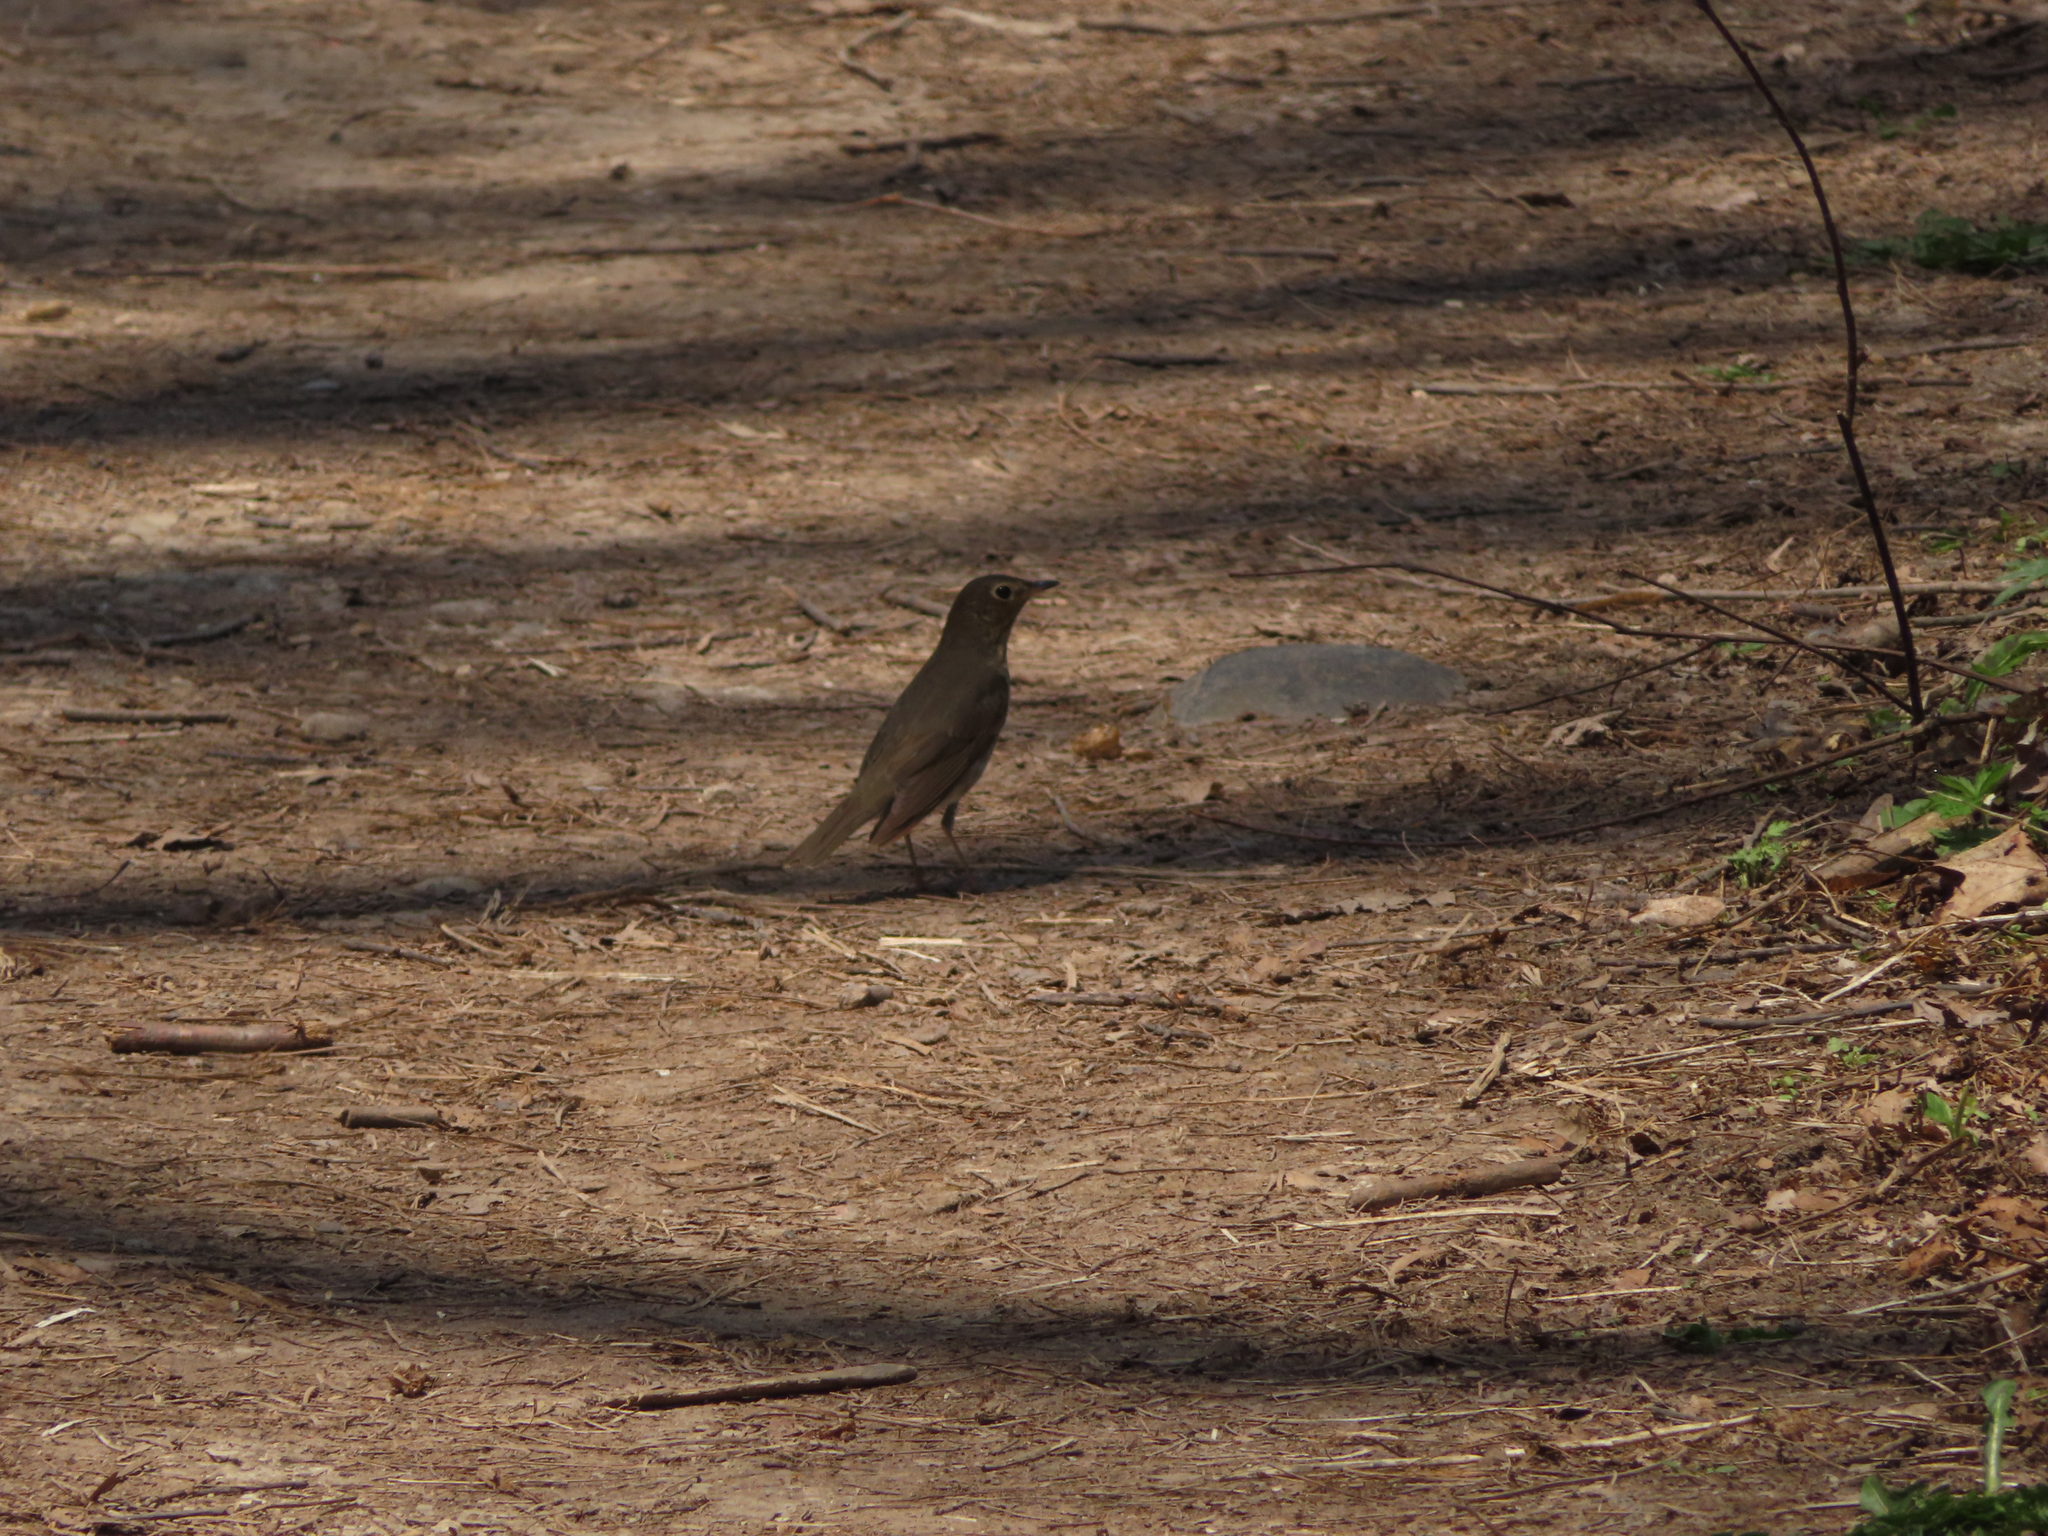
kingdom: Animalia
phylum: Chordata
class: Aves
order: Passeriformes
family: Turdidae
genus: Catharus
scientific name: Catharus ustulatus
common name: Swainson's thrush
